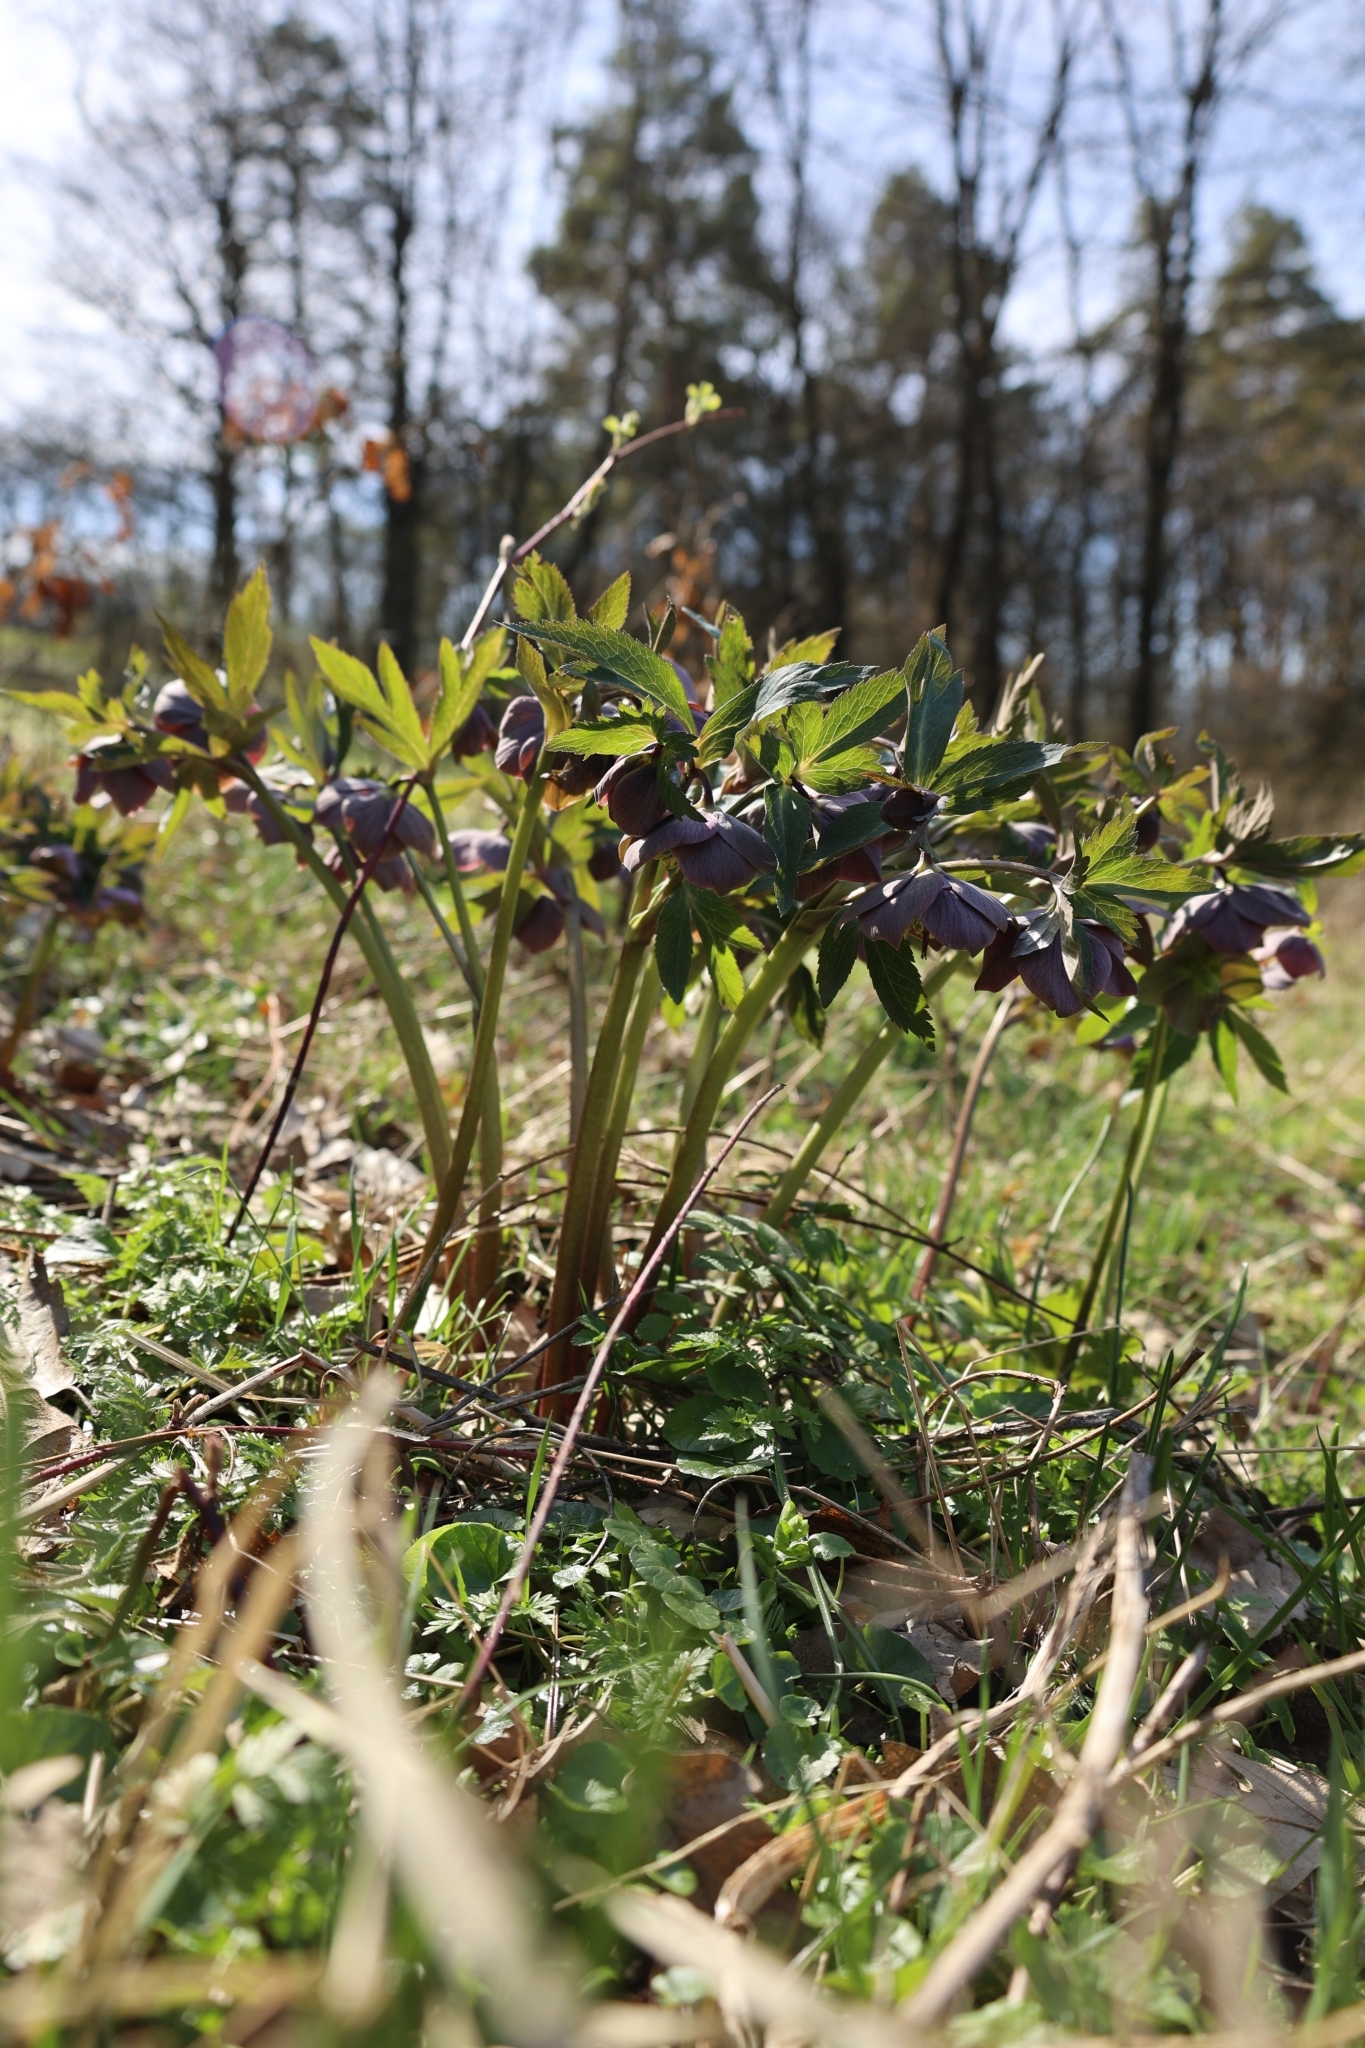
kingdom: Plantae
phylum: Tracheophyta
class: Magnoliopsida
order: Ranunculales
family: Ranunculaceae
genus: Helleborus
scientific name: Helleborus purpurascens
